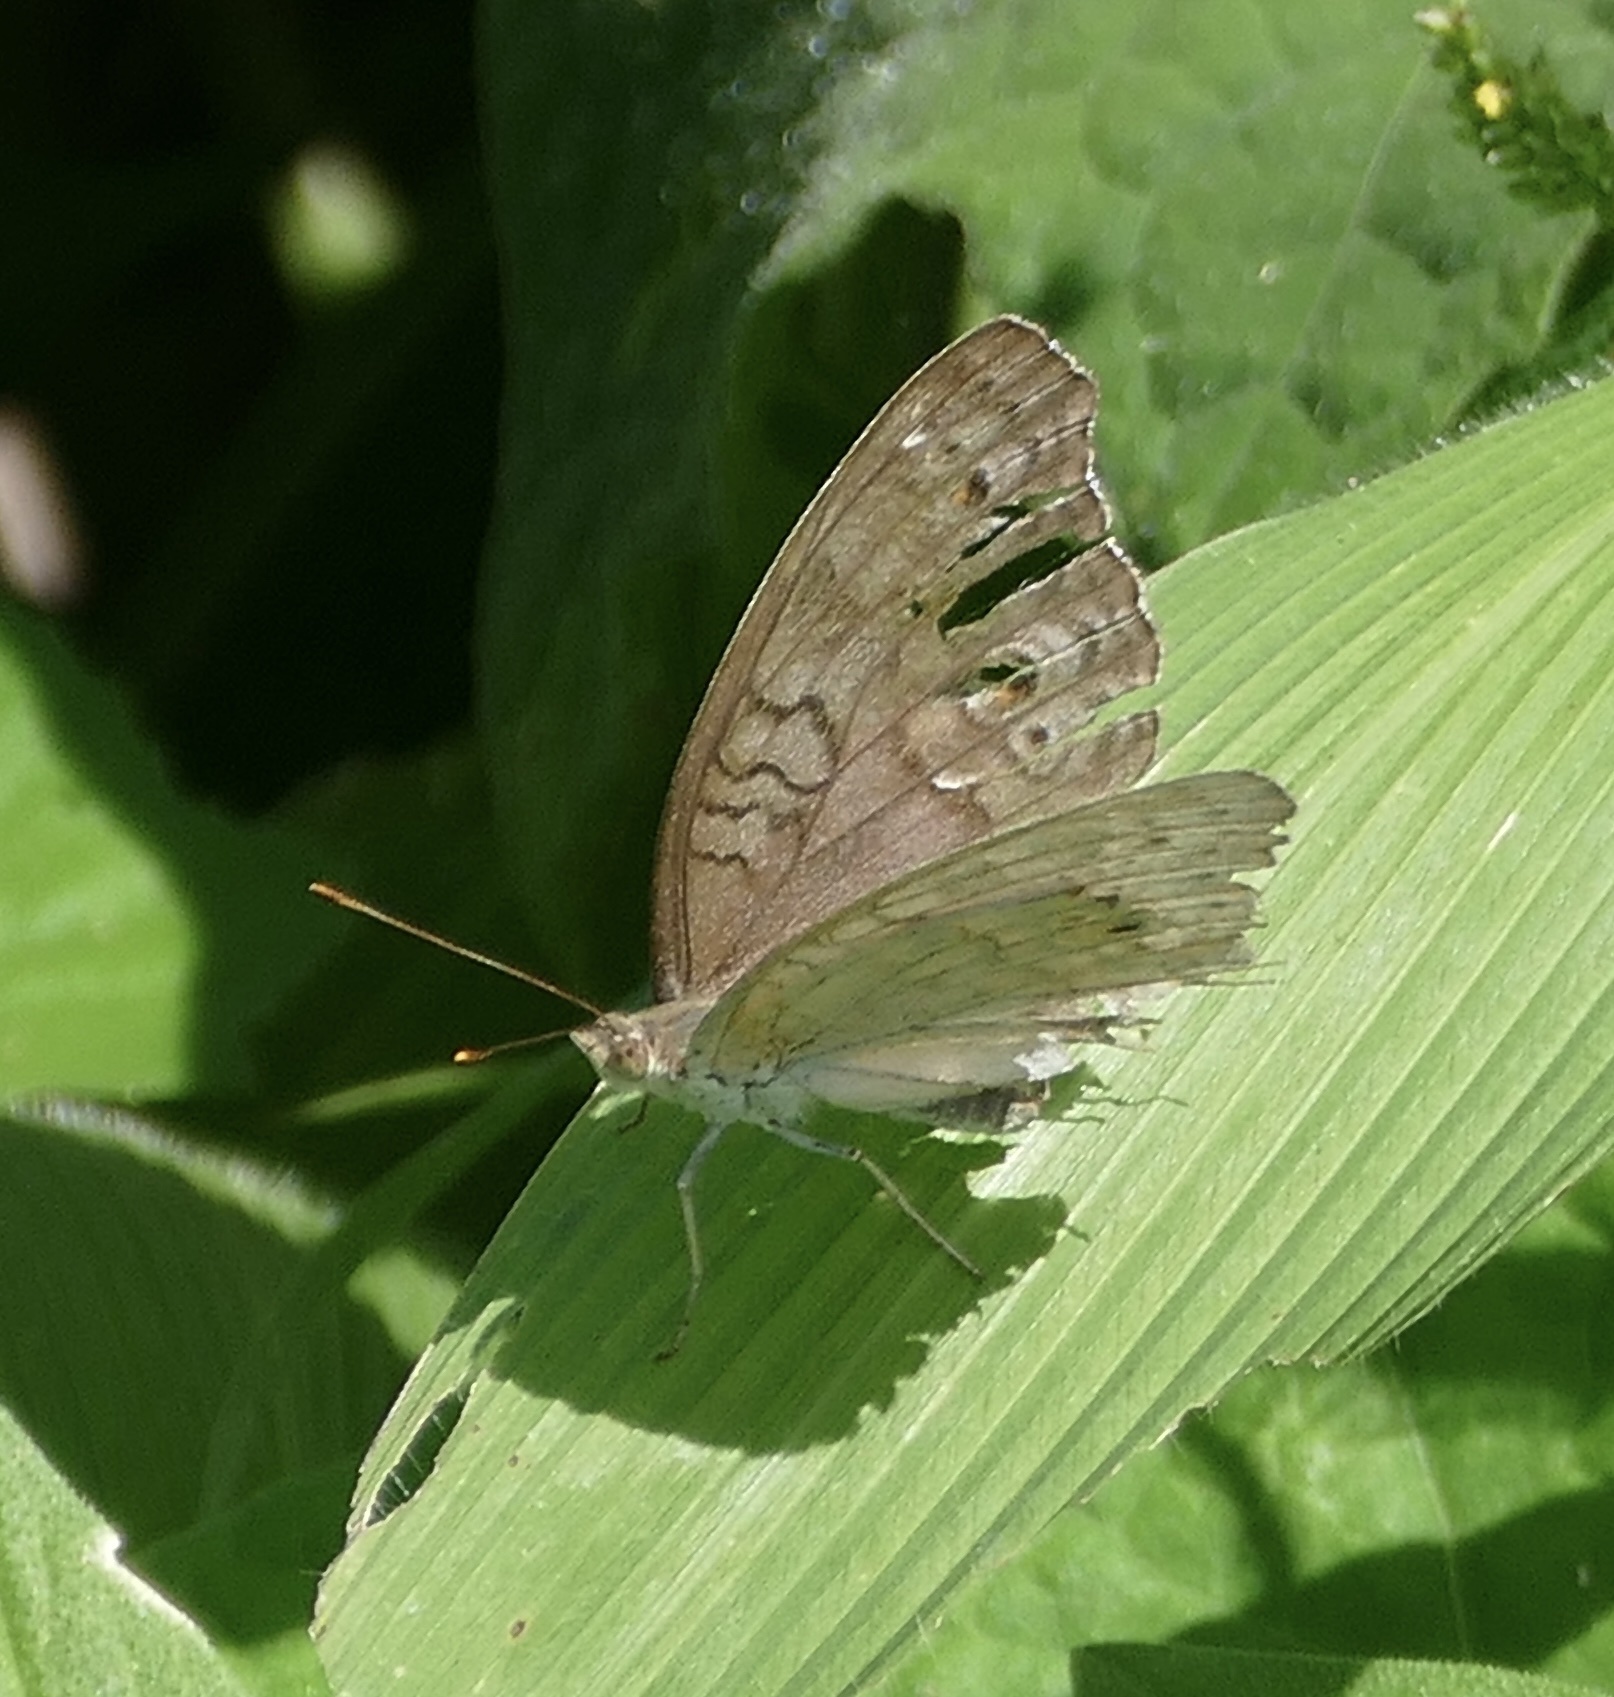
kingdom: Animalia
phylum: Arthropoda
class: Insecta
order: Lepidoptera
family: Nymphalidae
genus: Junonia
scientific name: Junonia atlites
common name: Grey pansy
